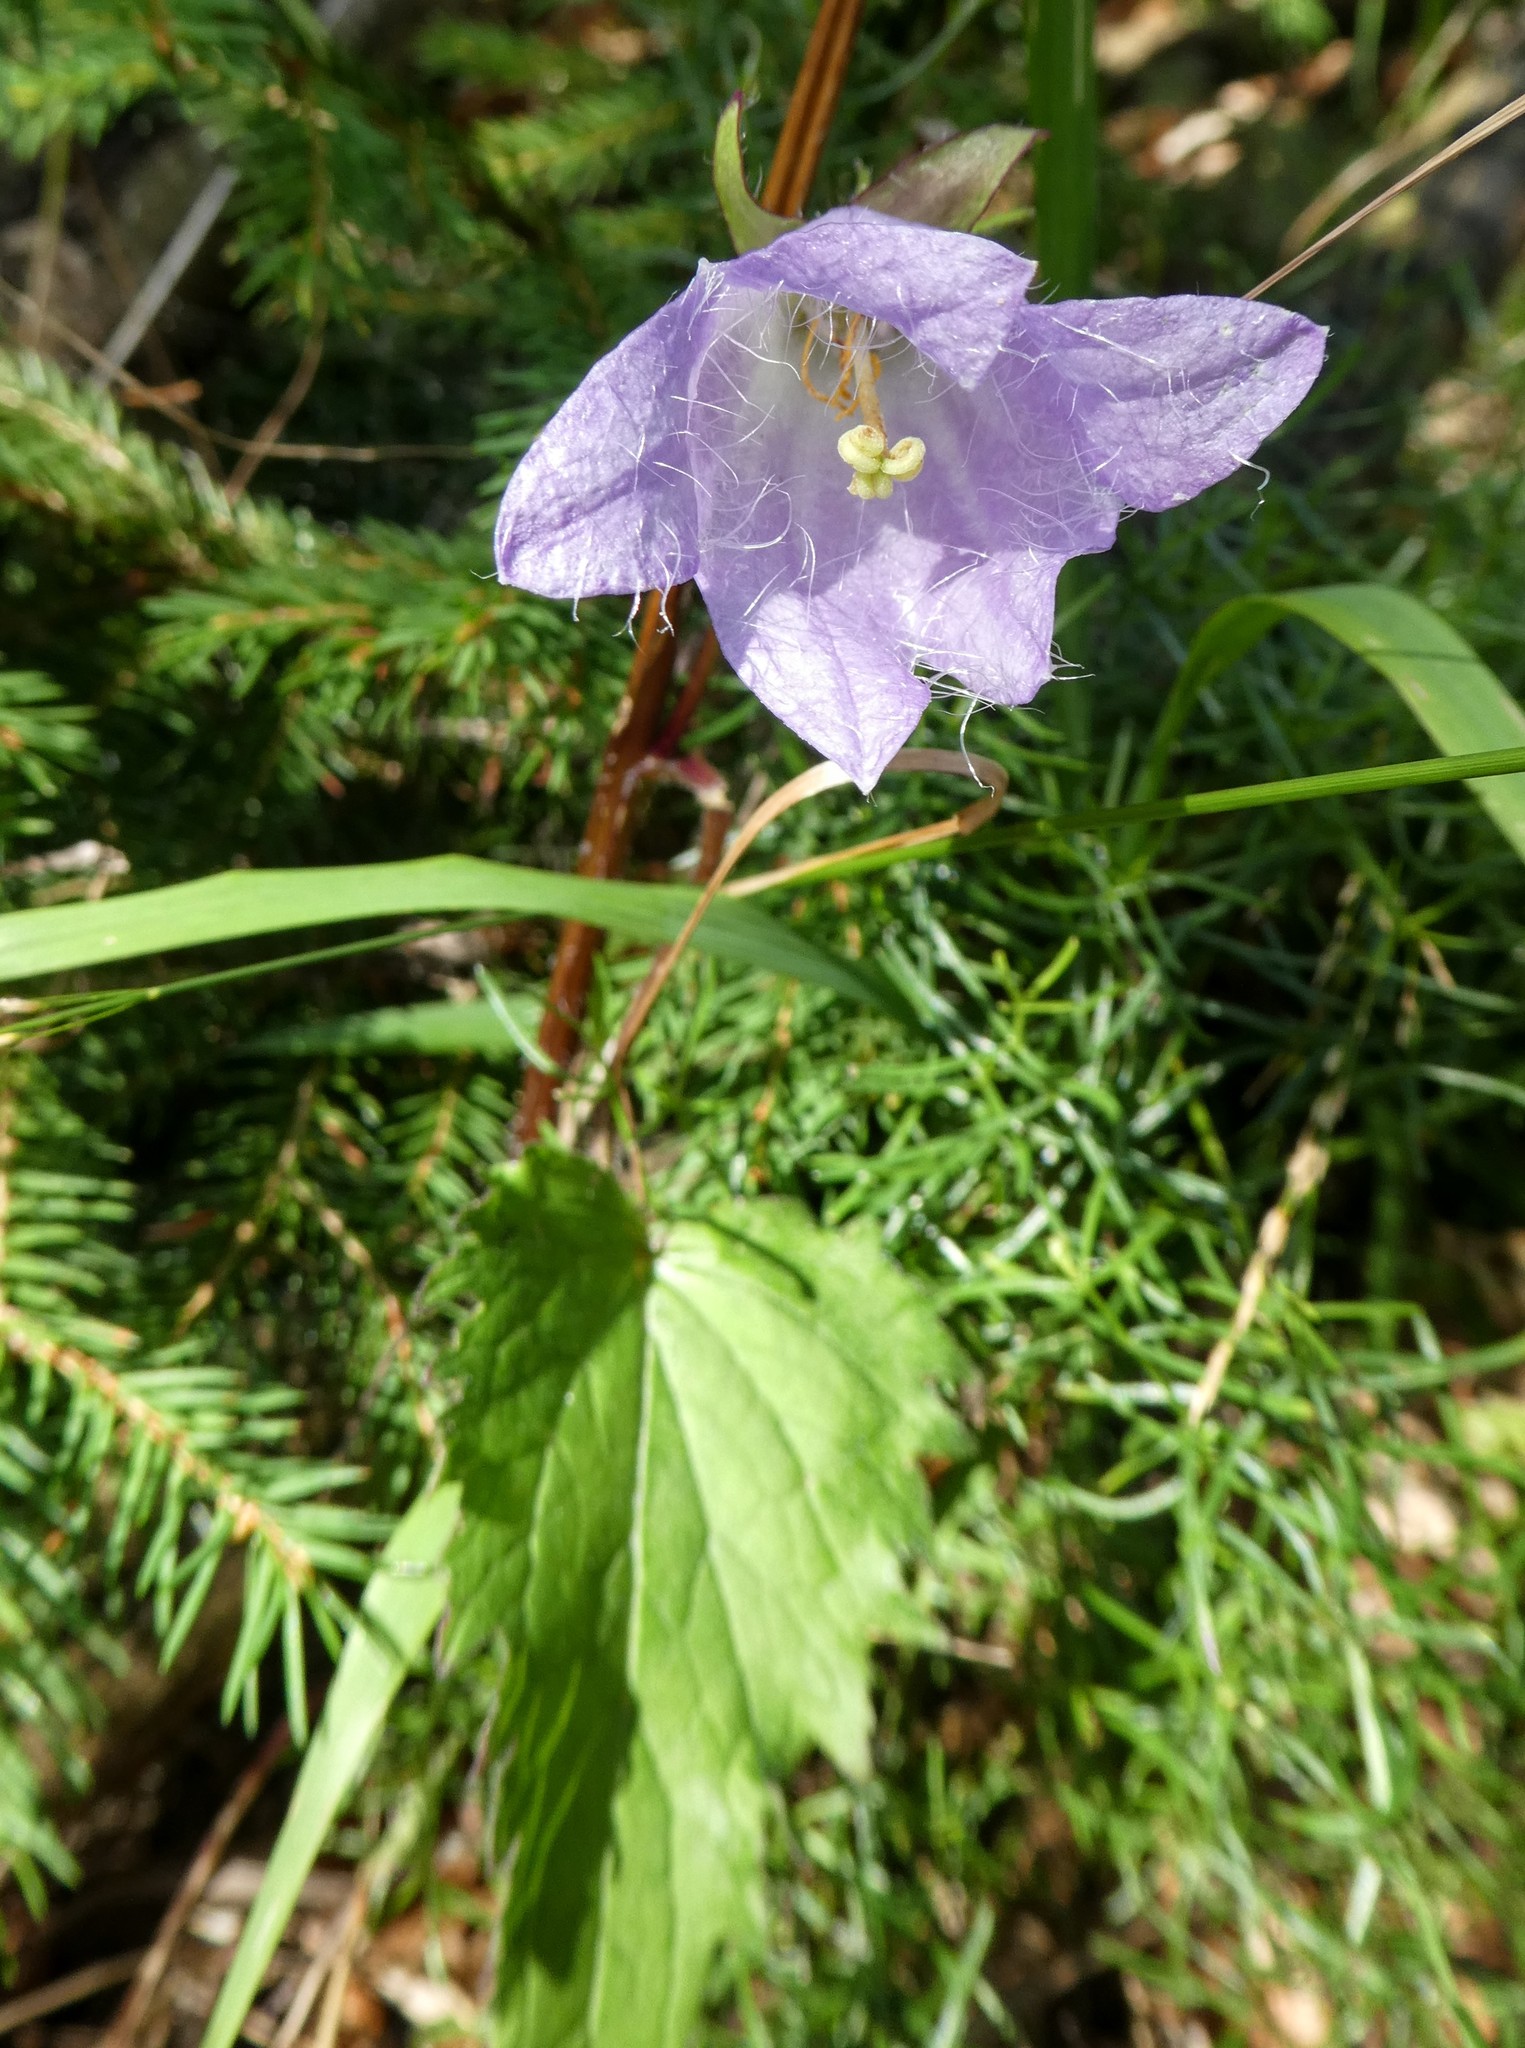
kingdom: Plantae
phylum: Tracheophyta
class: Magnoliopsida
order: Asterales
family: Campanulaceae
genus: Campanula
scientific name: Campanula trachelium
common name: Nettle-leaved bellflower
